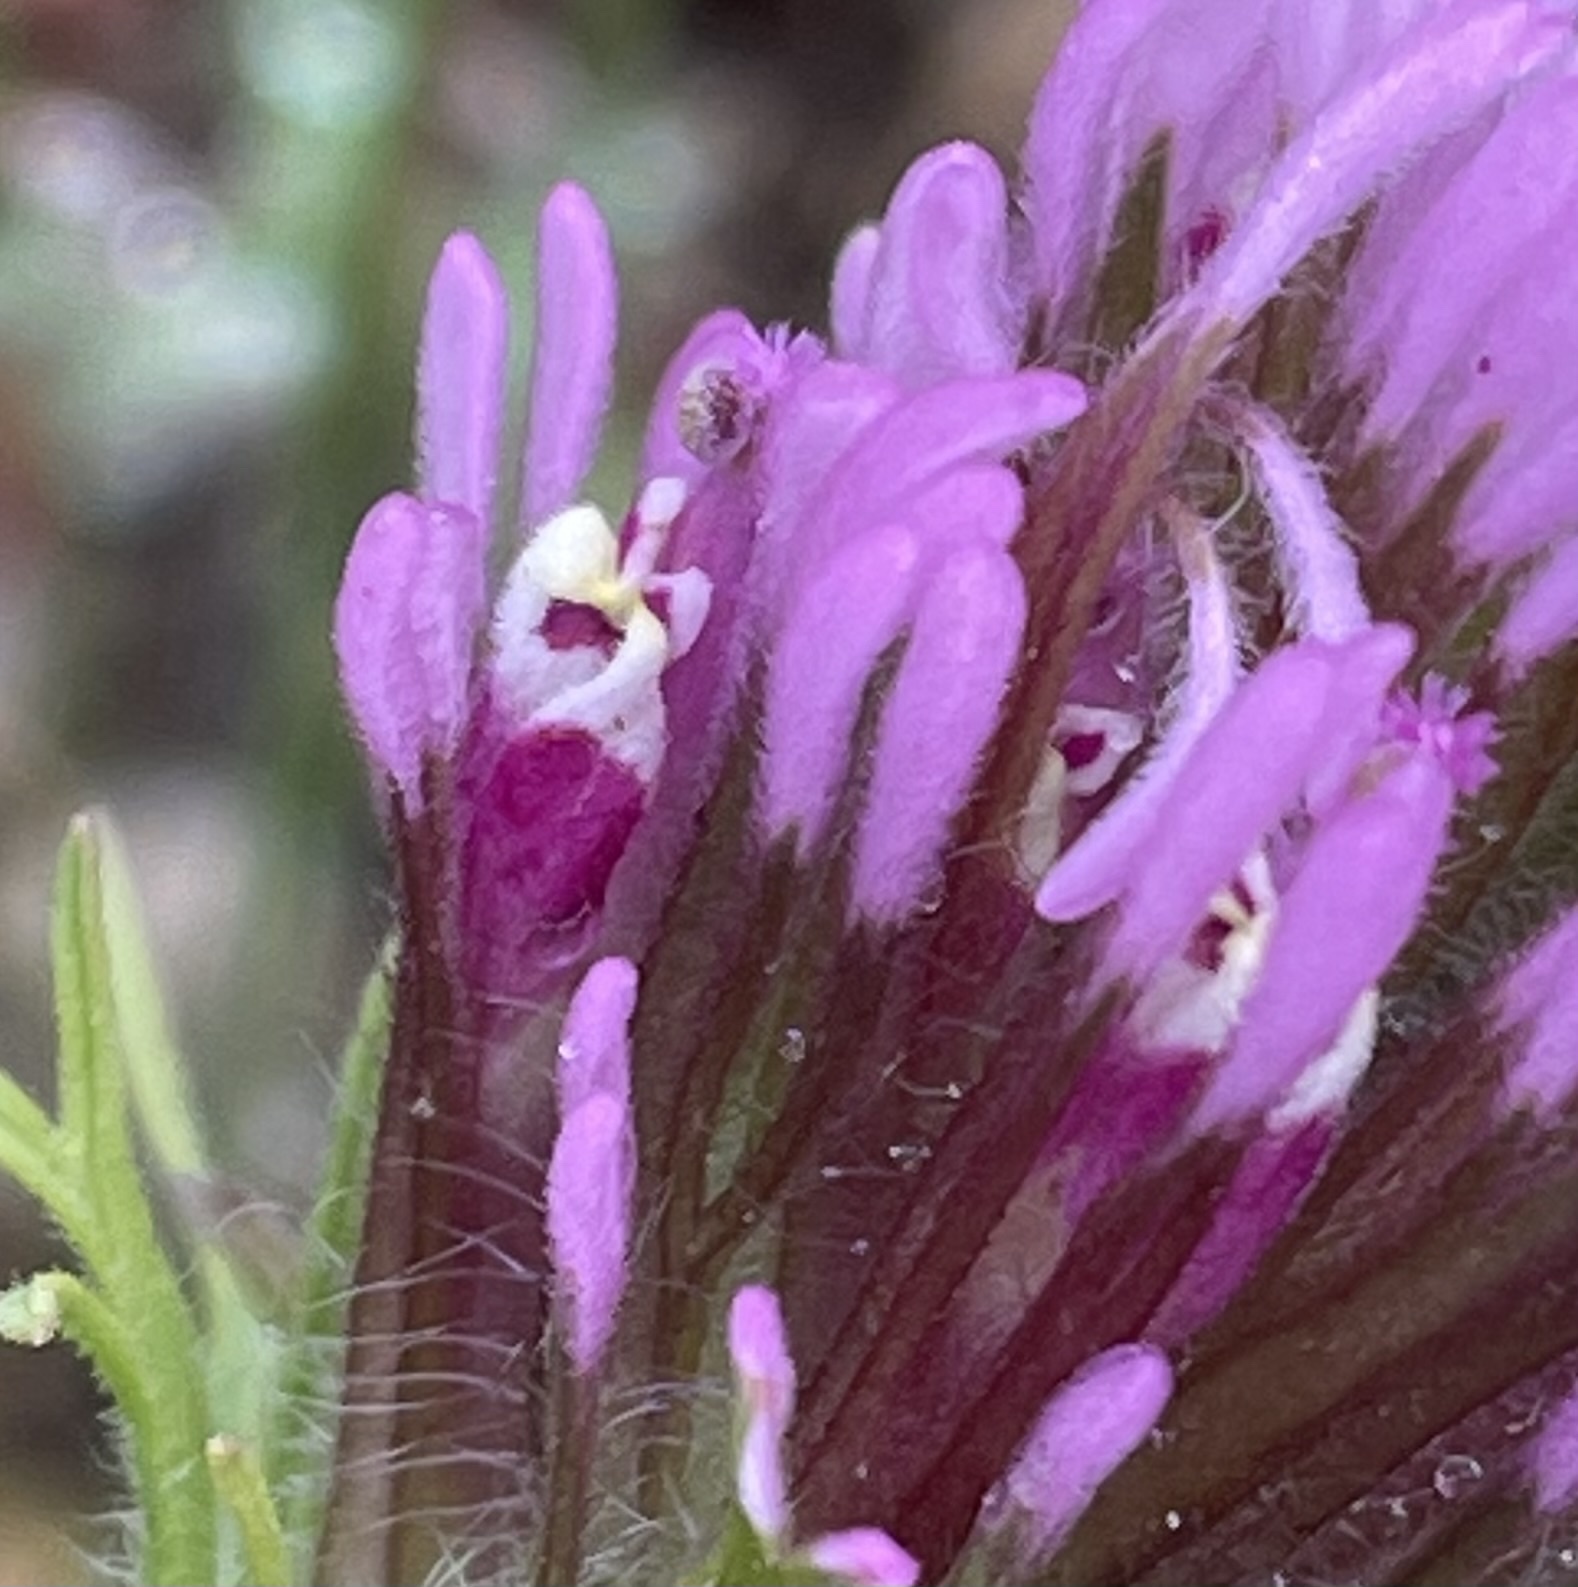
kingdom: Plantae
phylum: Tracheophyta
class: Magnoliopsida
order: Lamiales
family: Orobanchaceae
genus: Castilleja
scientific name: Castilleja exserta
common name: Purple owl-clover
